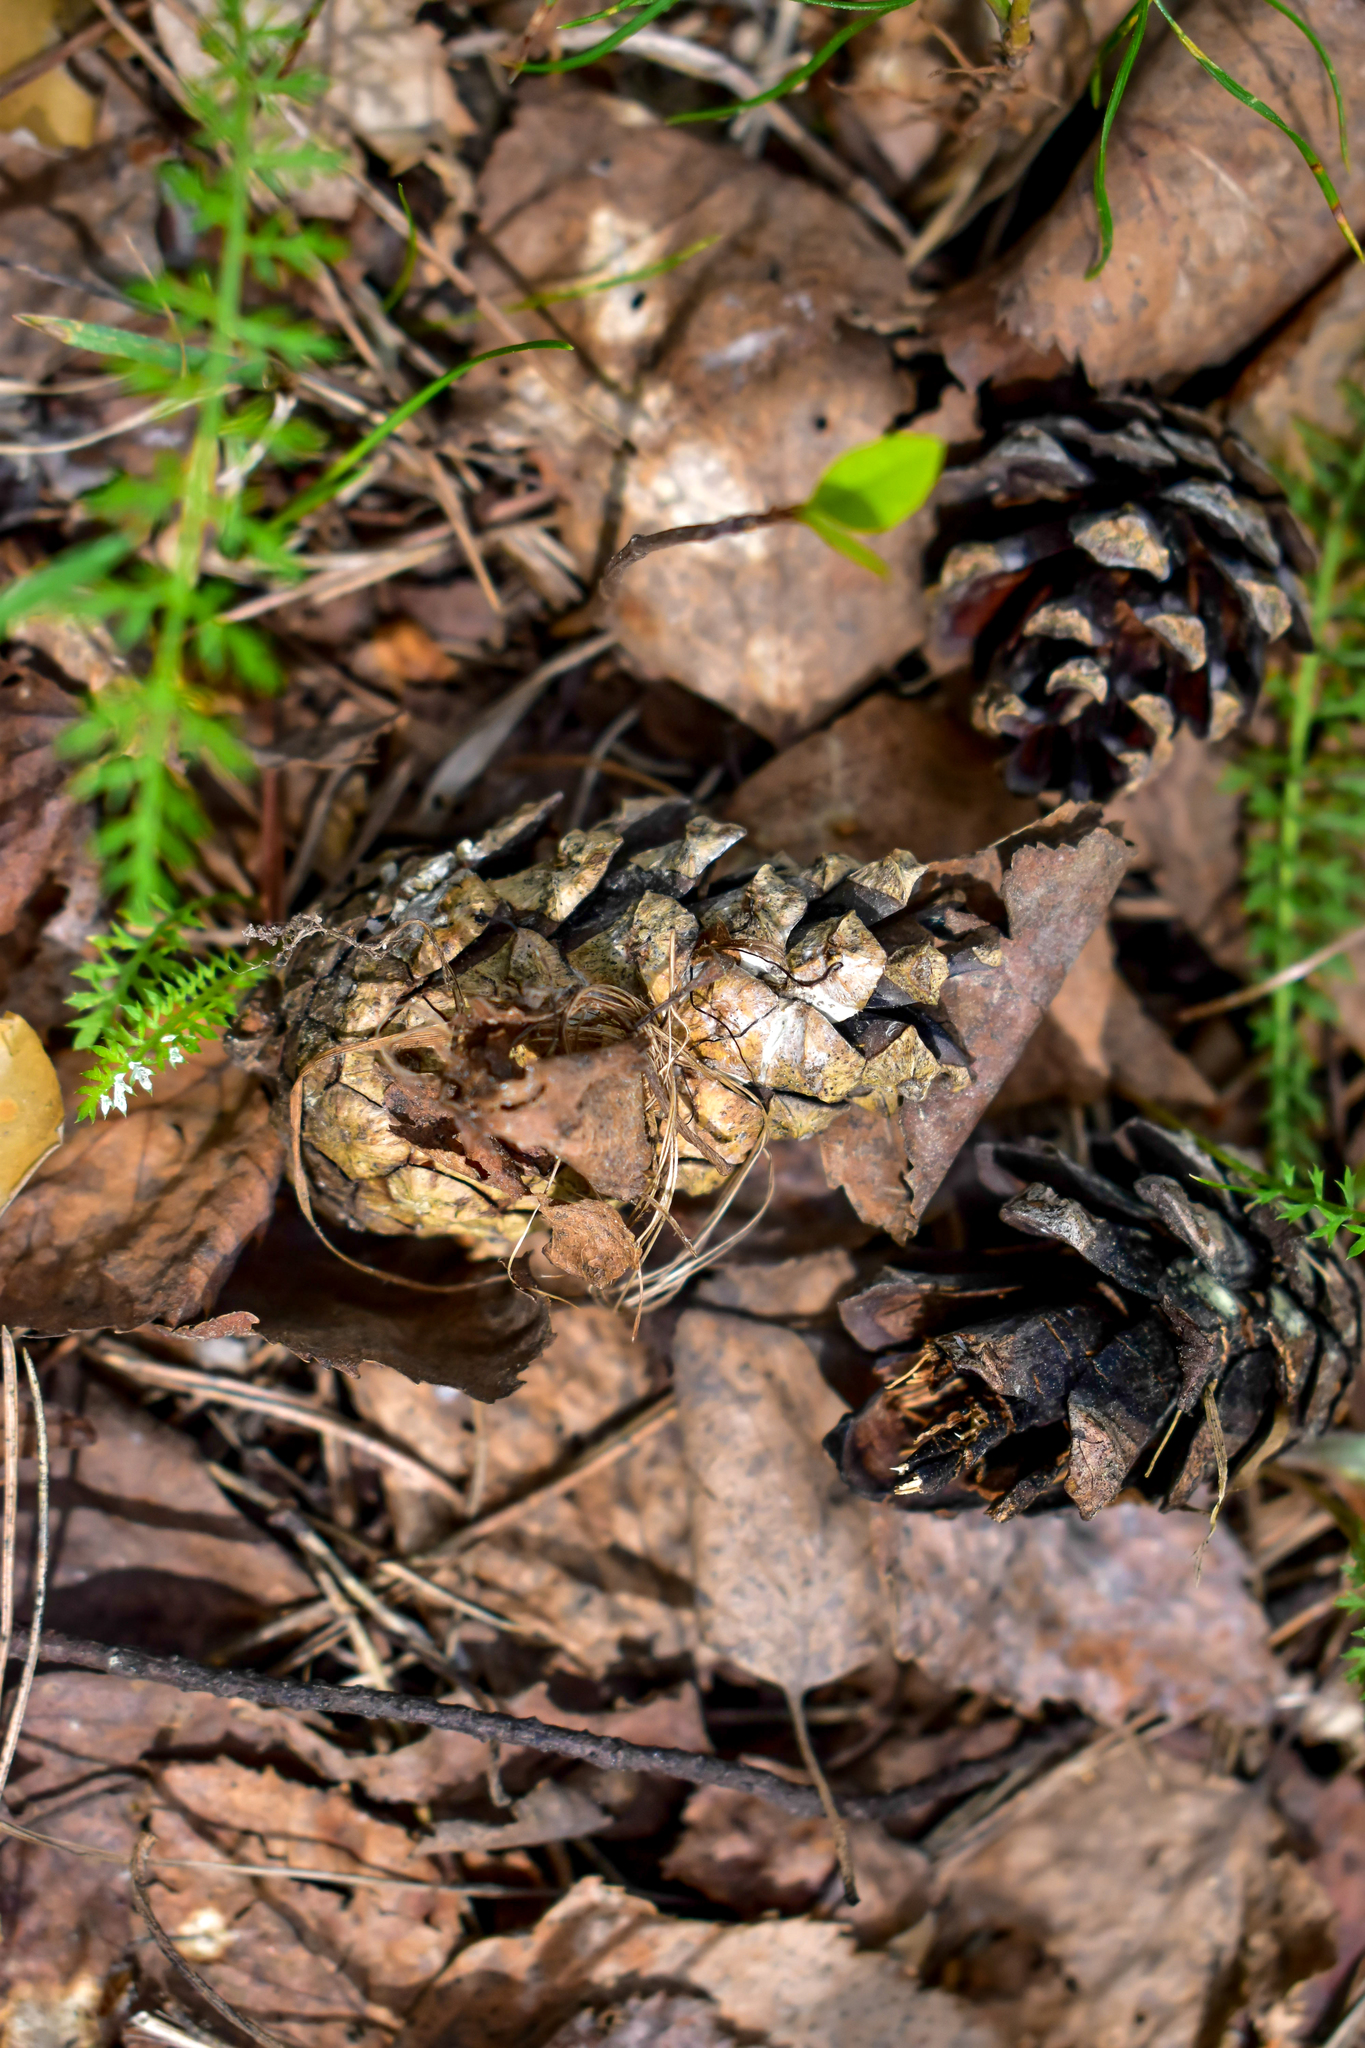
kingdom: Plantae
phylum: Tracheophyta
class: Pinopsida
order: Pinales
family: Pinaceae
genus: Pinus
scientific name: Pinus sylvestris
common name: Scots pine
